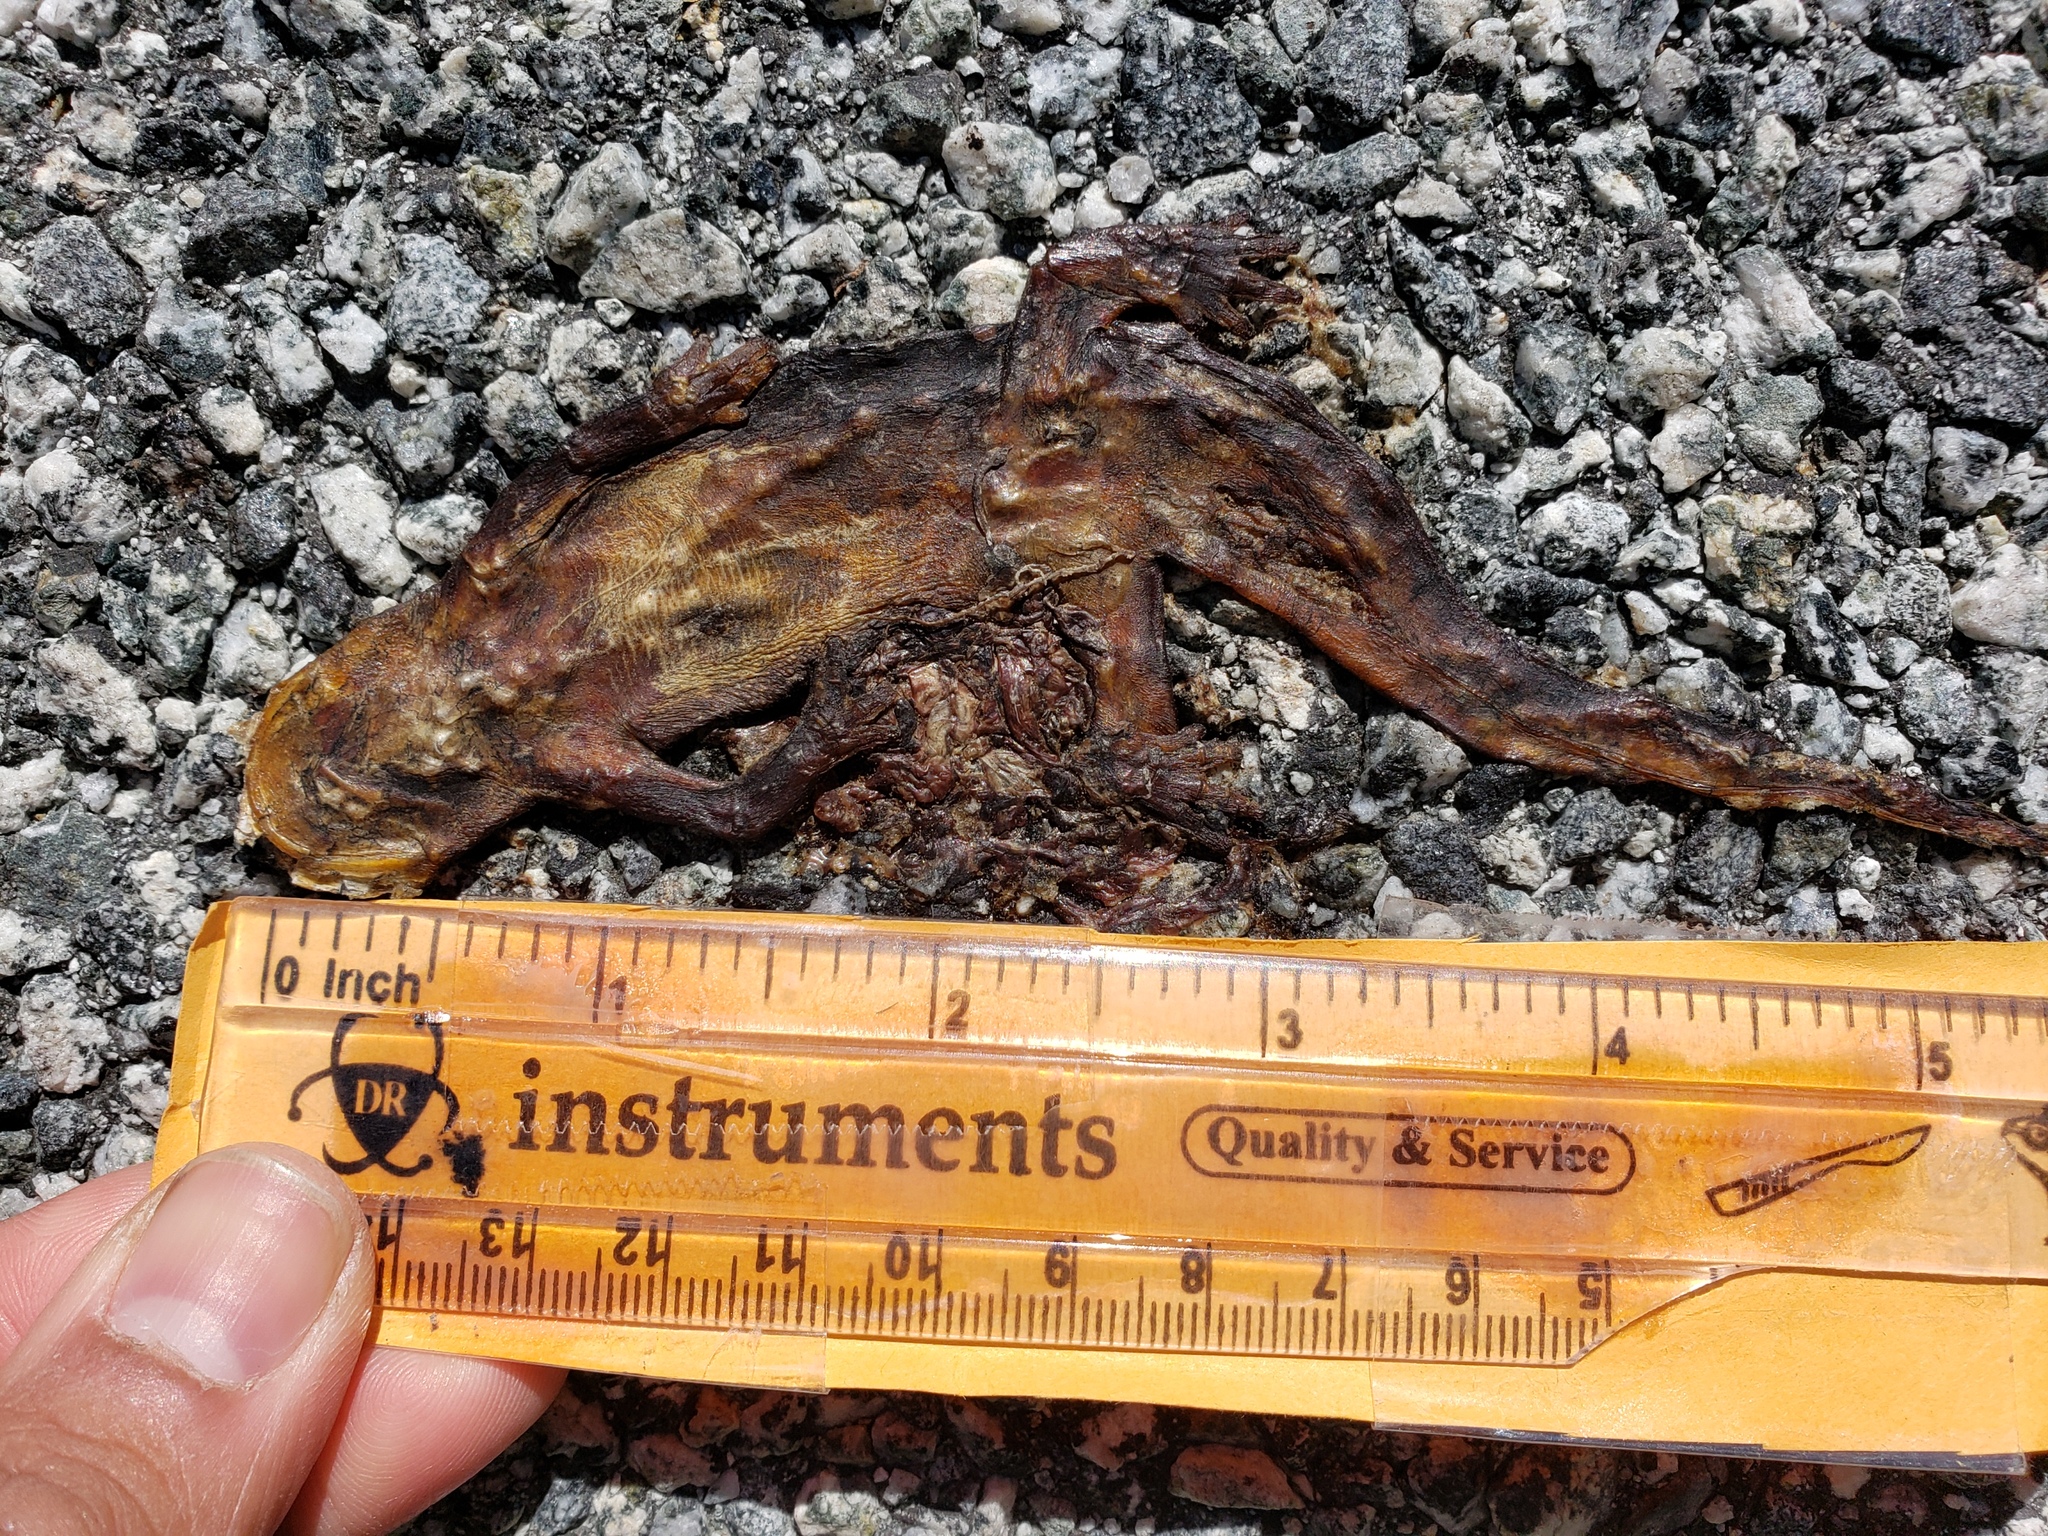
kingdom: Animalia
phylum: Chordata
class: Amphibia
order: Caudata
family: Salamandridae
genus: Taricha
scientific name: Taricha
